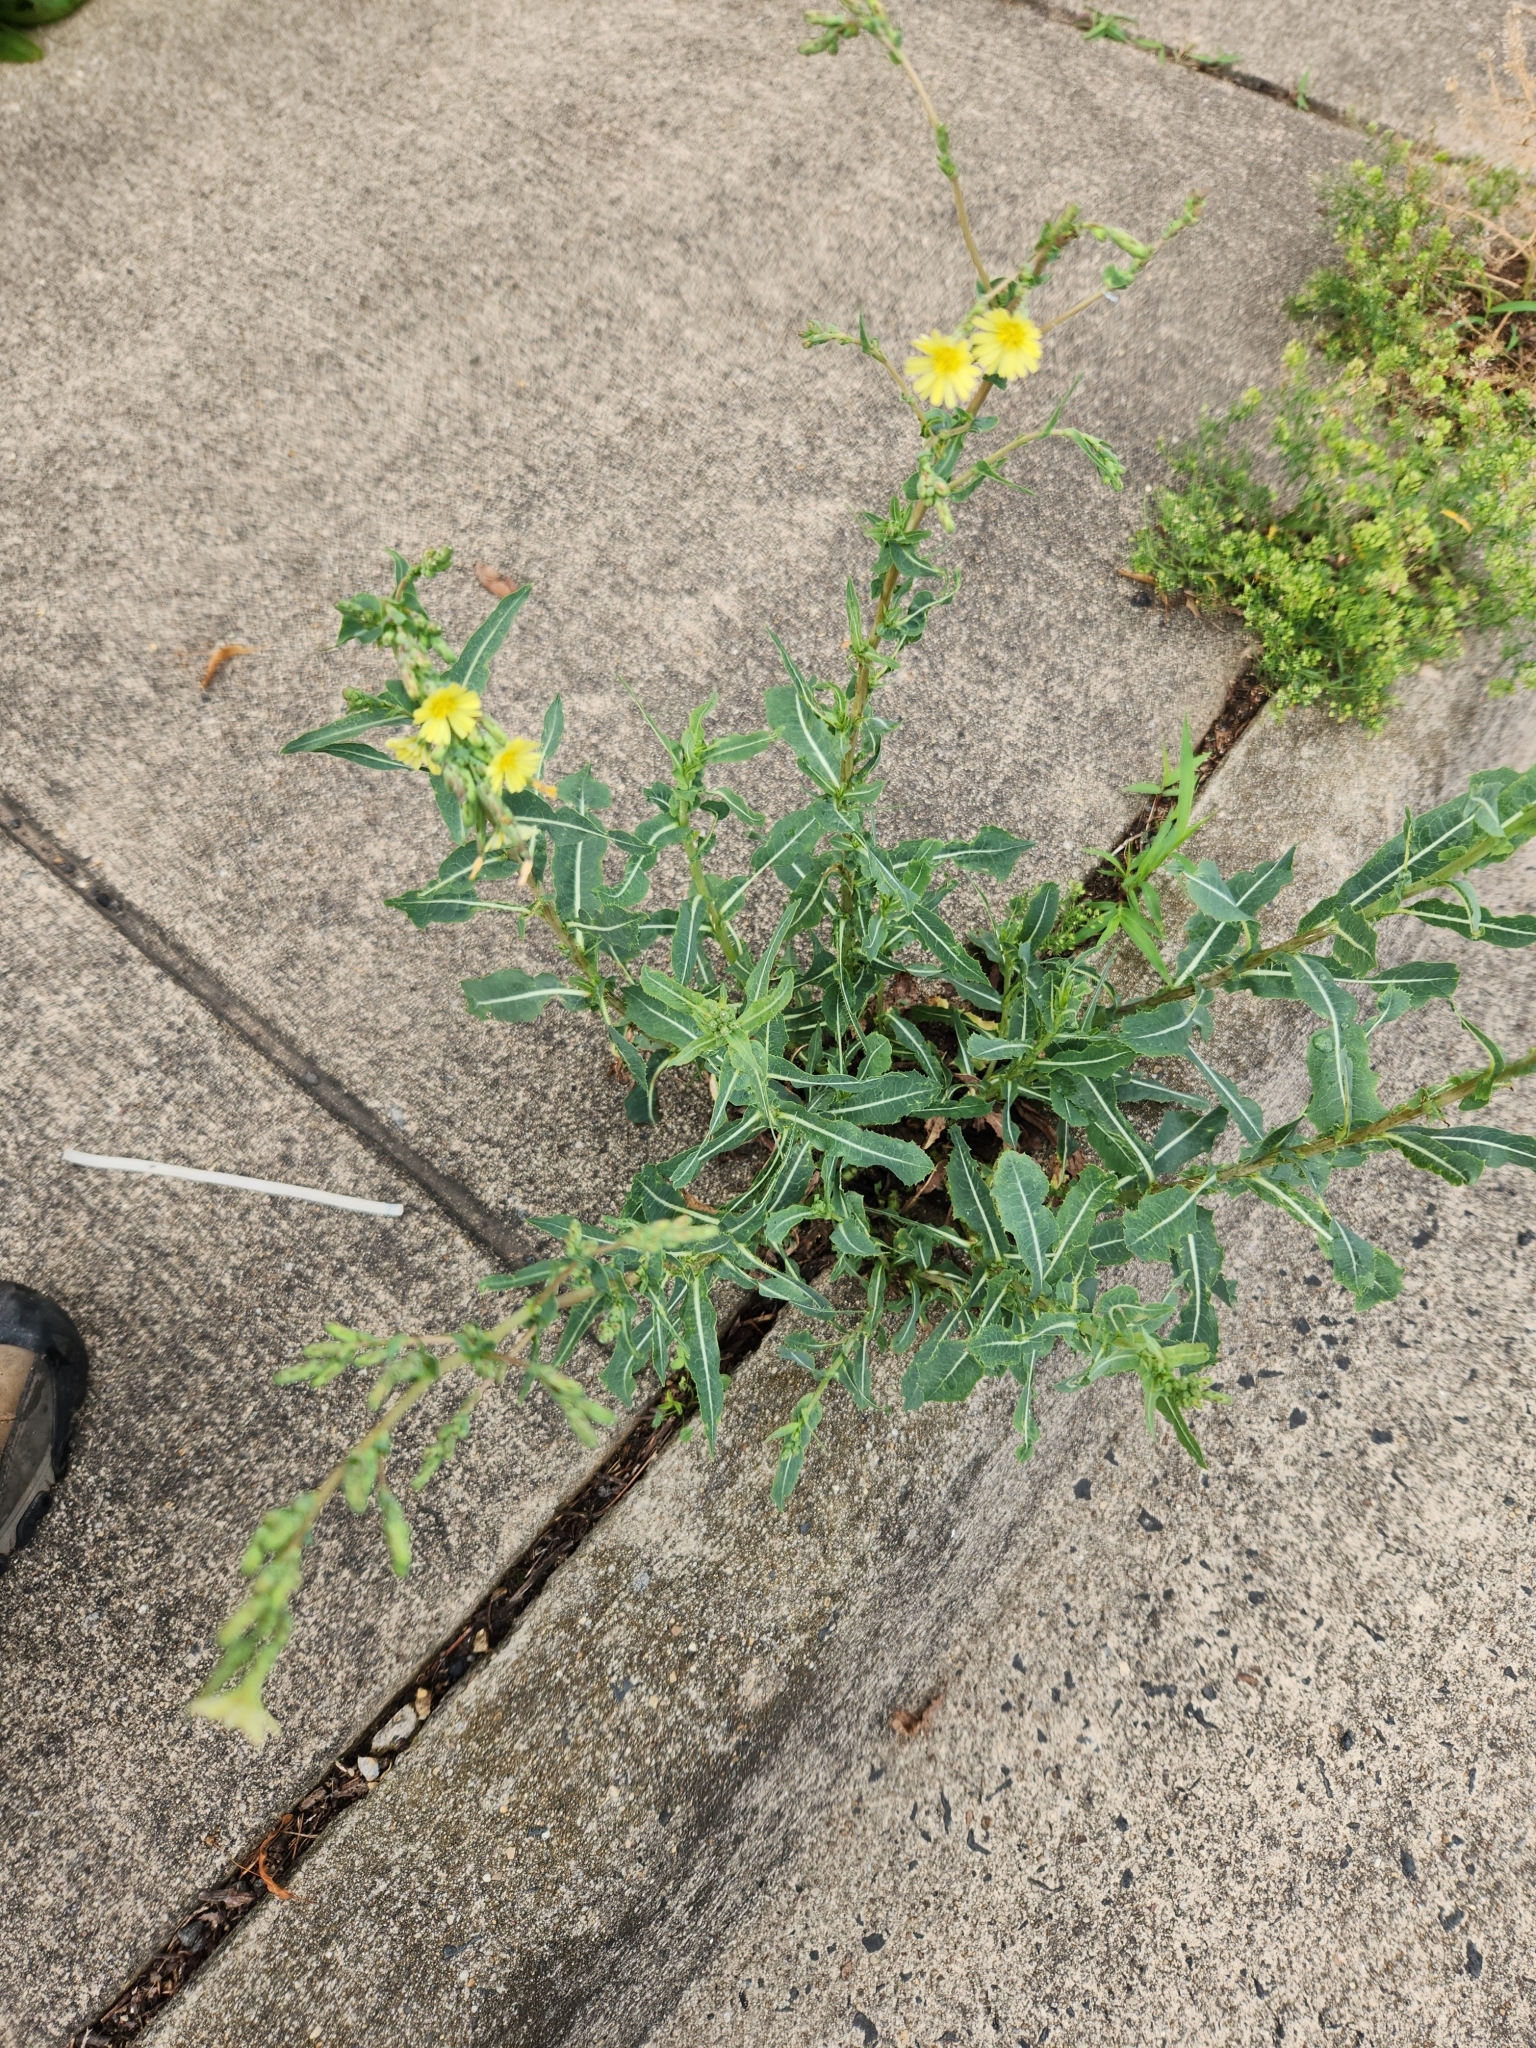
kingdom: Plantae
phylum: Tracheophyta
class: Magnoliopsida
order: Asterales
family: Asteraceae
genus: Lactuca
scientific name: Lactuca serriola
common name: Prickly lettuce
